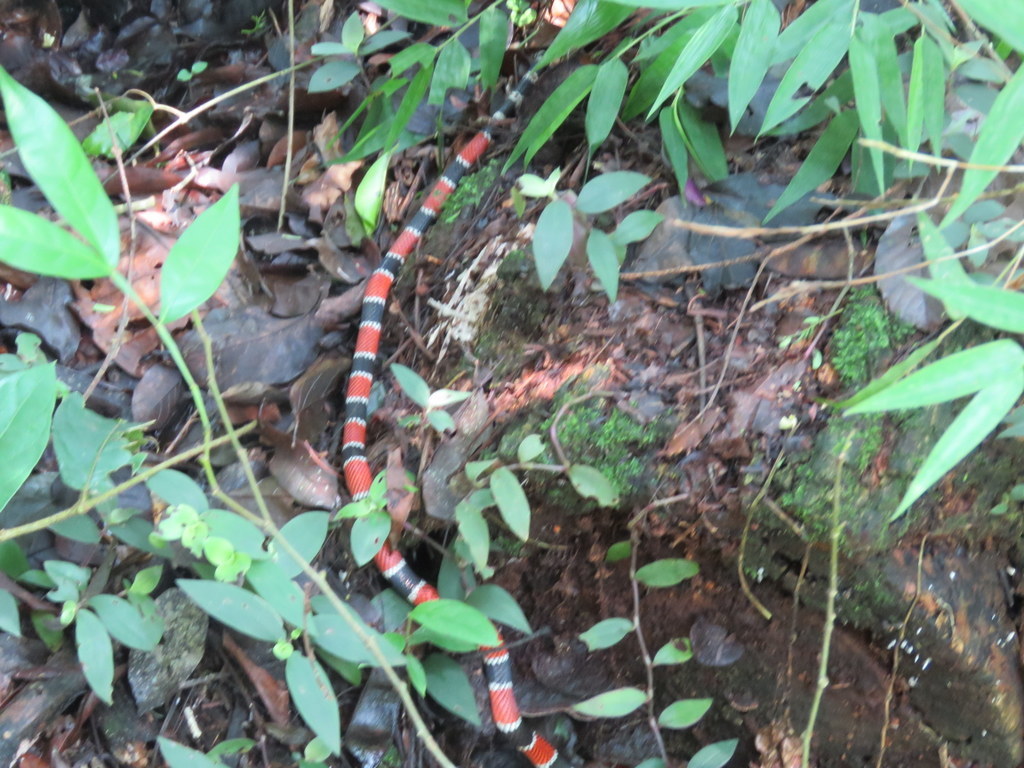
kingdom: Animalia
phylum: Chordata
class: Squamata
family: Elapidae
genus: Micrurus
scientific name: Micrurus corallinus
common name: Painted coral snake
